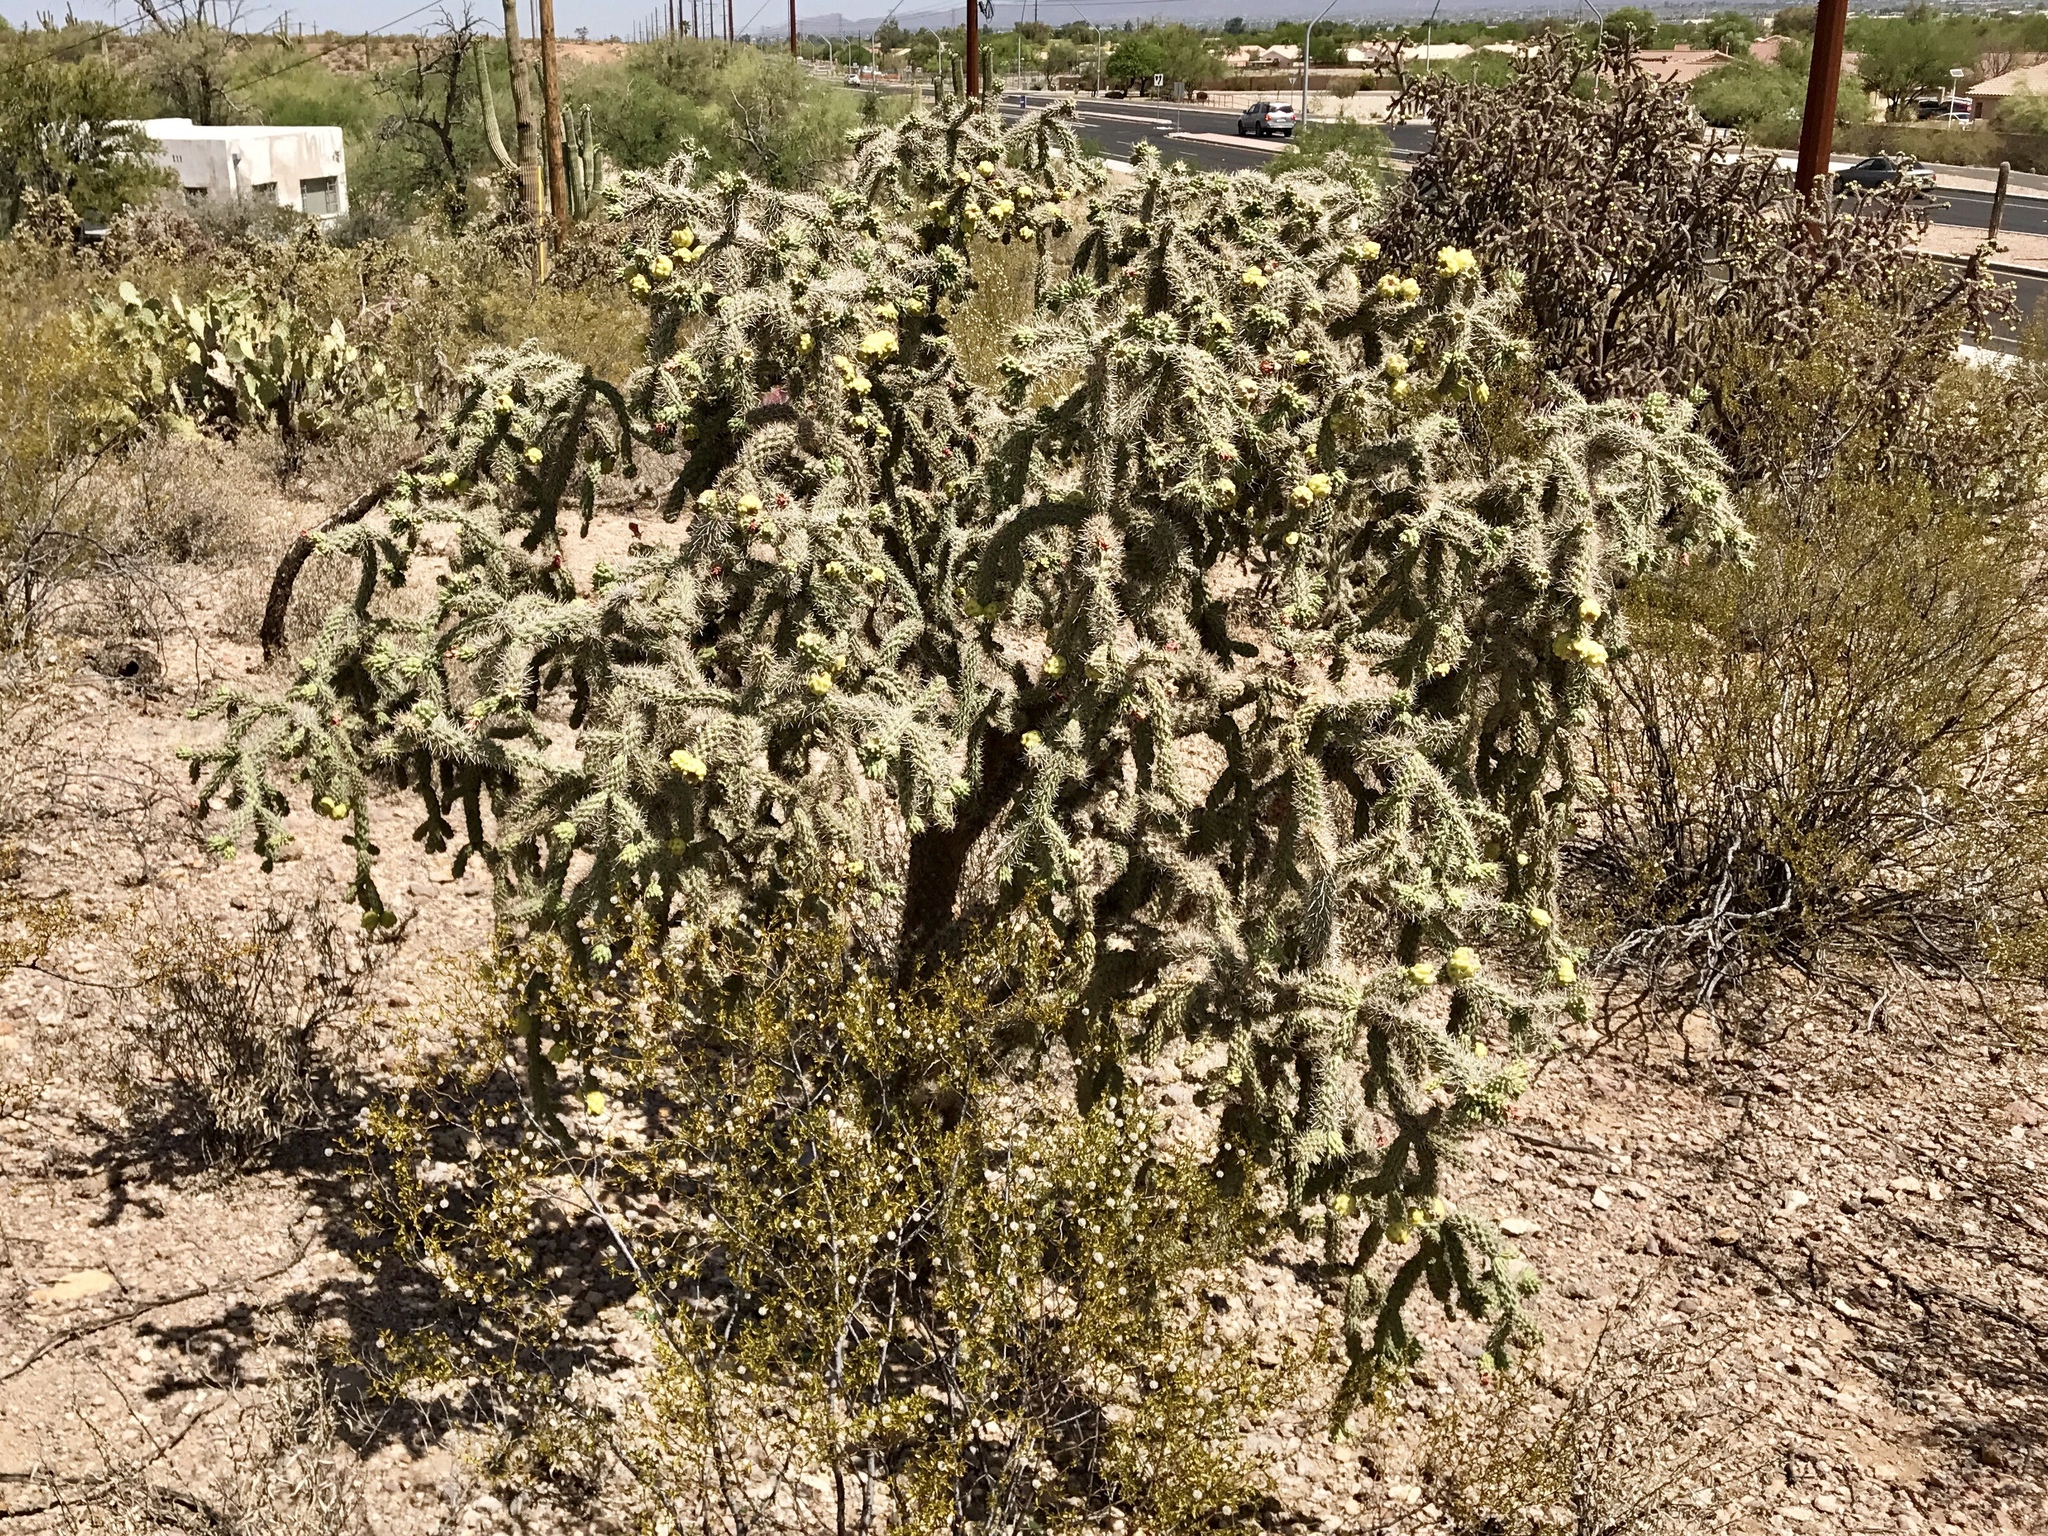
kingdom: Plantae
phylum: Tracheophyta
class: Magnoliopsida
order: Caryophyllales
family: Cactaceae
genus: Cylindropuntia
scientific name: Cylindropuntia imbricata
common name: Candelabrum cactus
